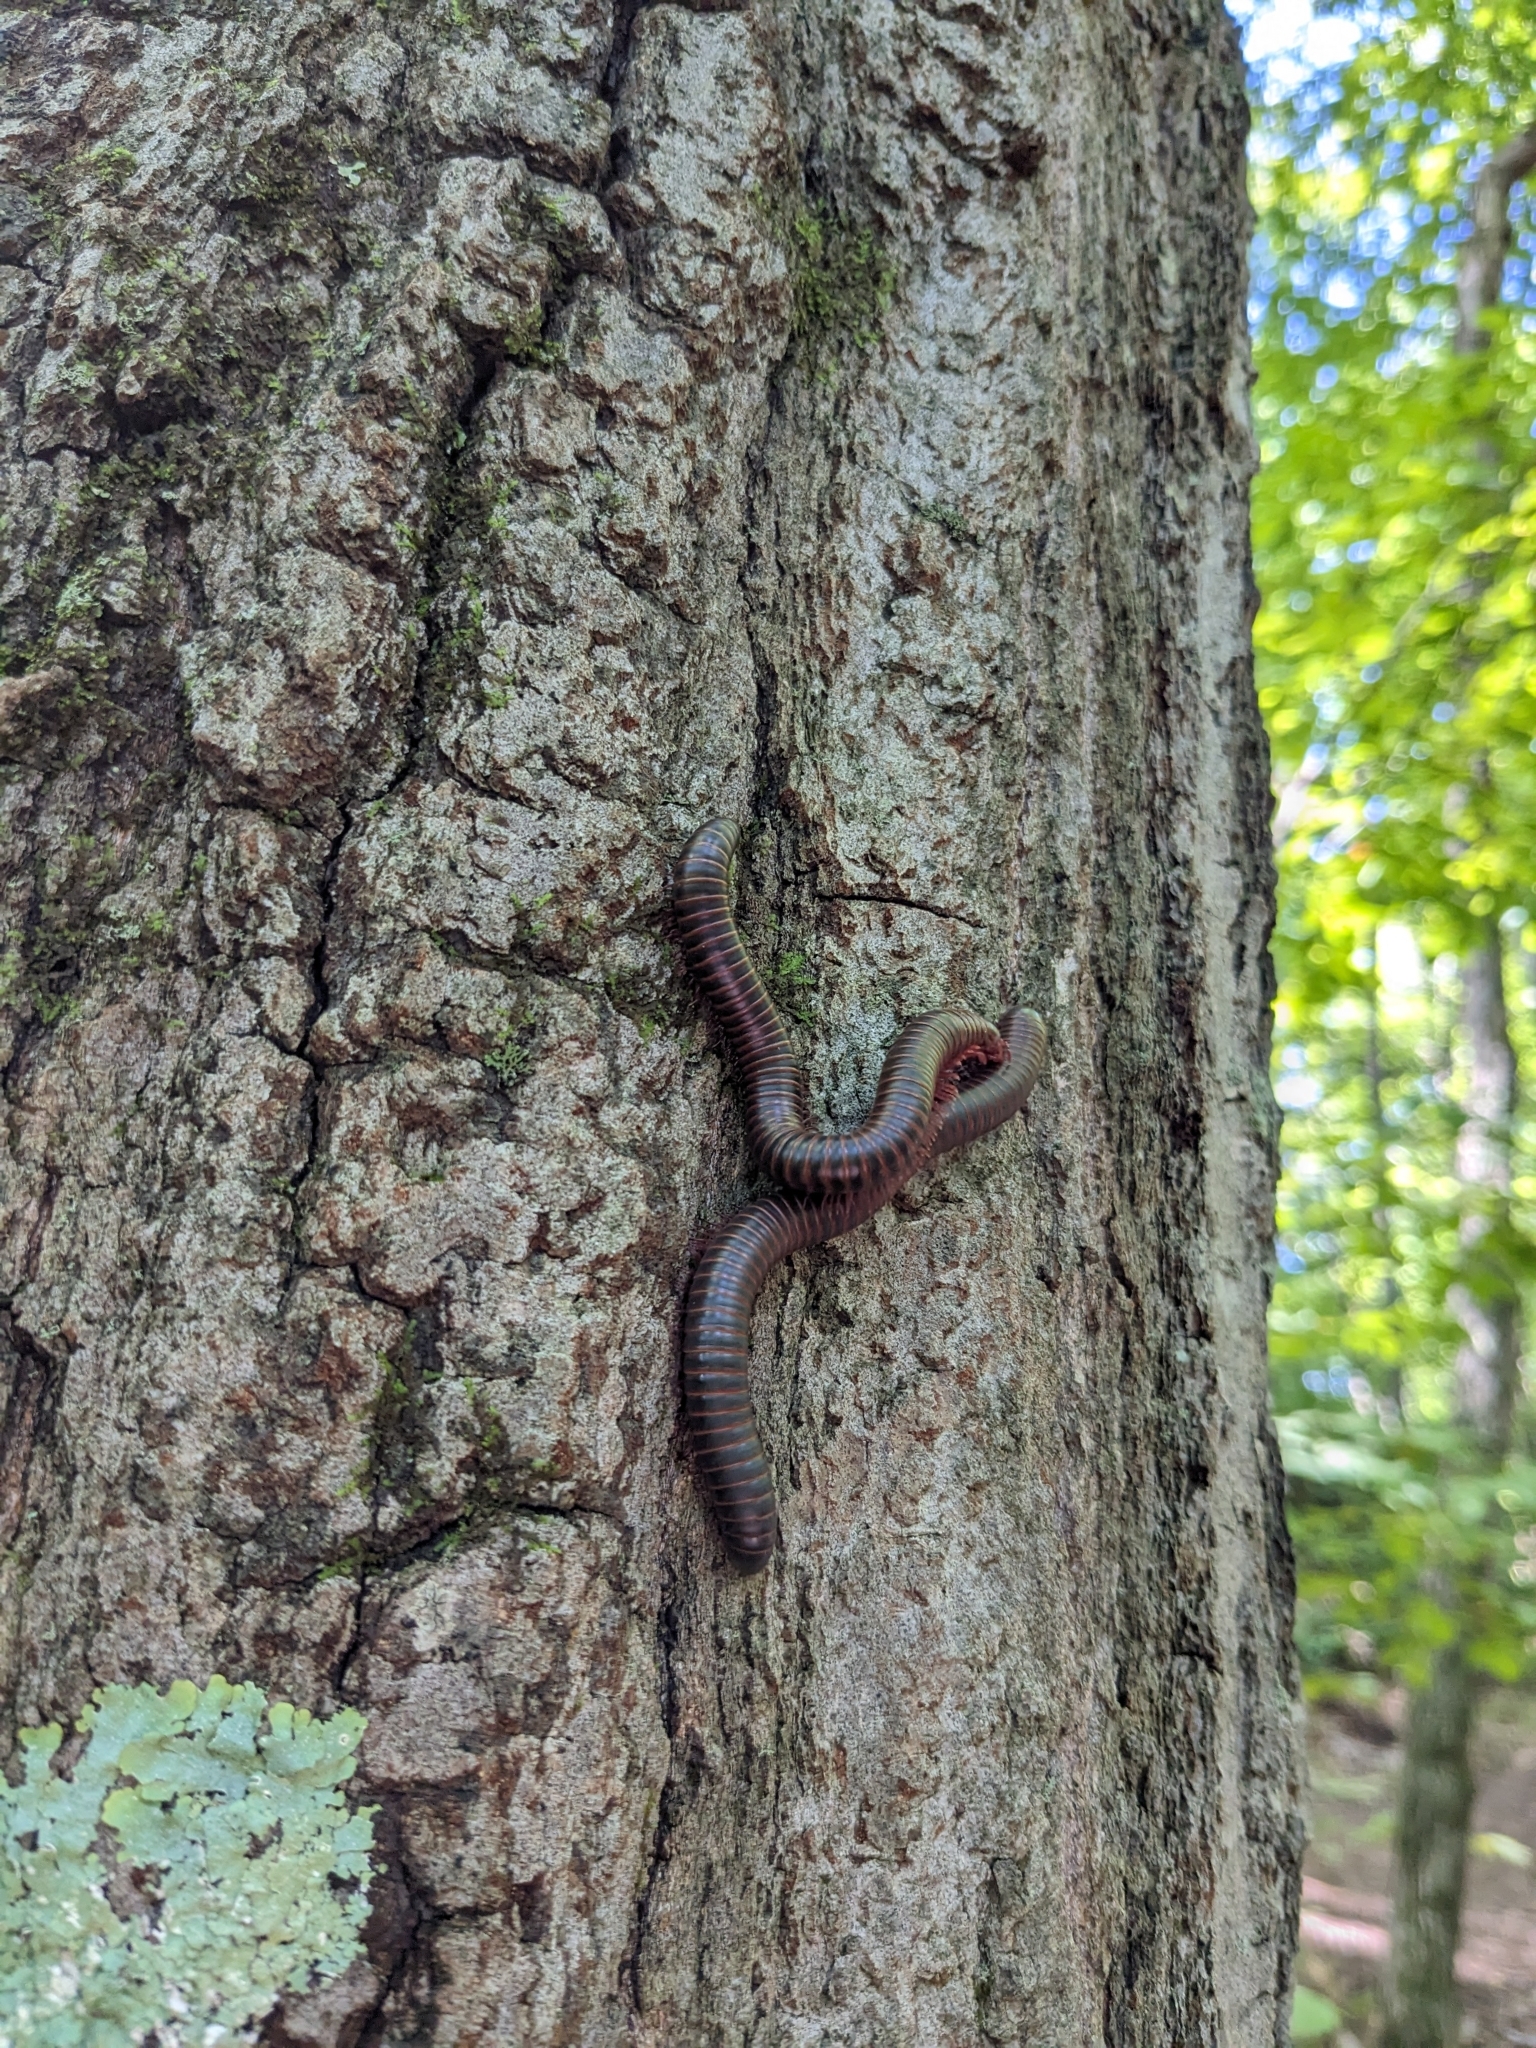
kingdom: Animalia
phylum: Arthropoda
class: Diplopoda
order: Spirobolida
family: Spirobolidae
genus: Narceus
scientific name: Narceus americanus
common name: American giant millipede
